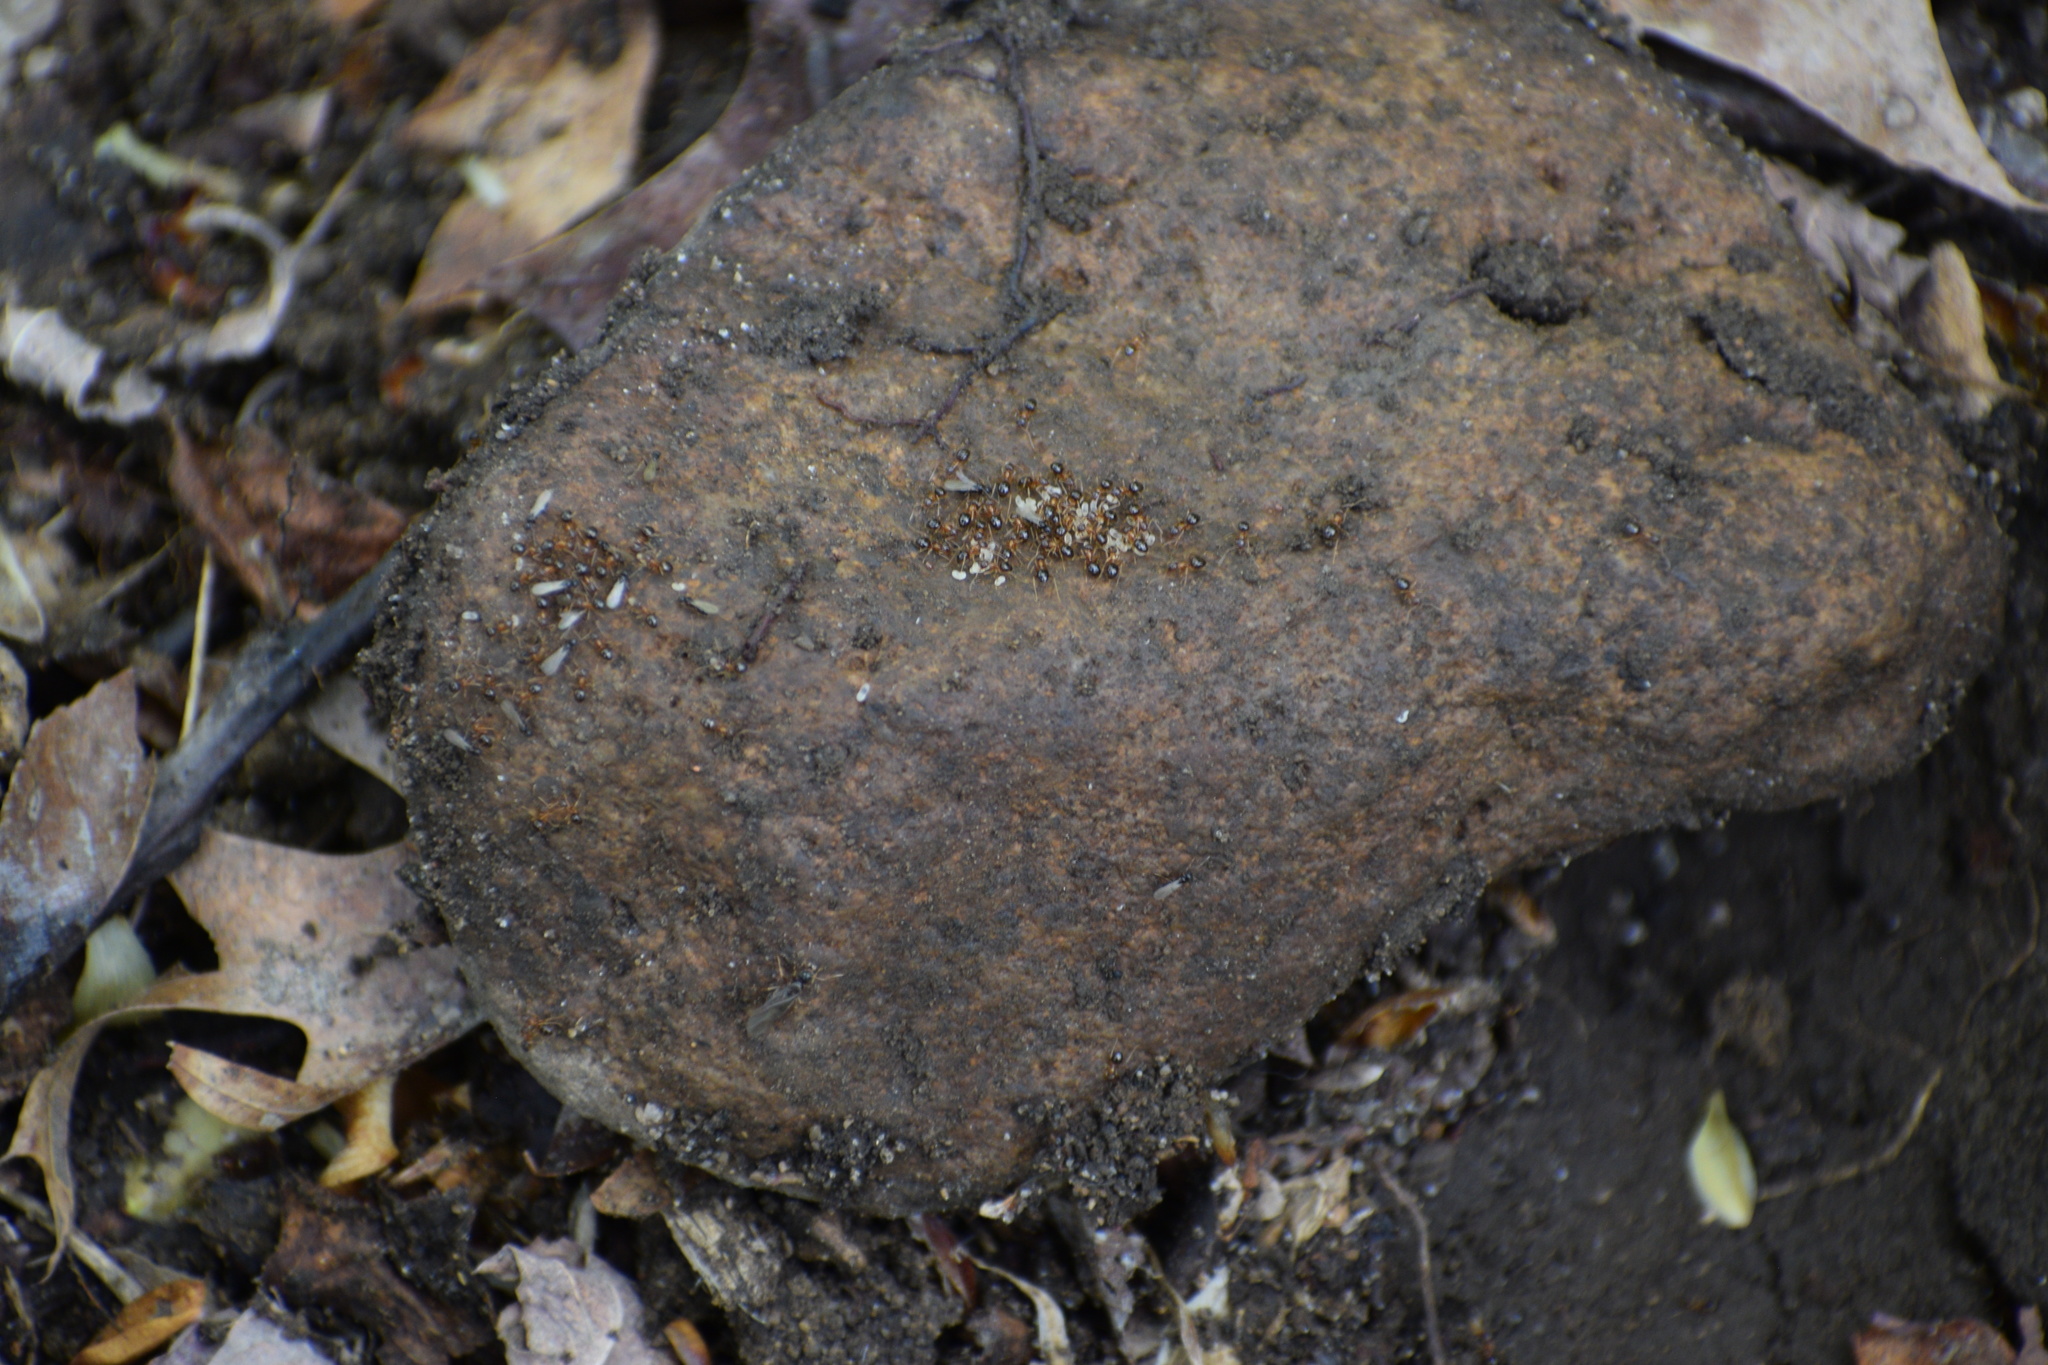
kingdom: Animalia
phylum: Arthropoda
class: Insecta
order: Hymenoptera
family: Formicidae
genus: Paratrechina
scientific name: Paratrechina flavipes
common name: Eastern asian formicine ant
